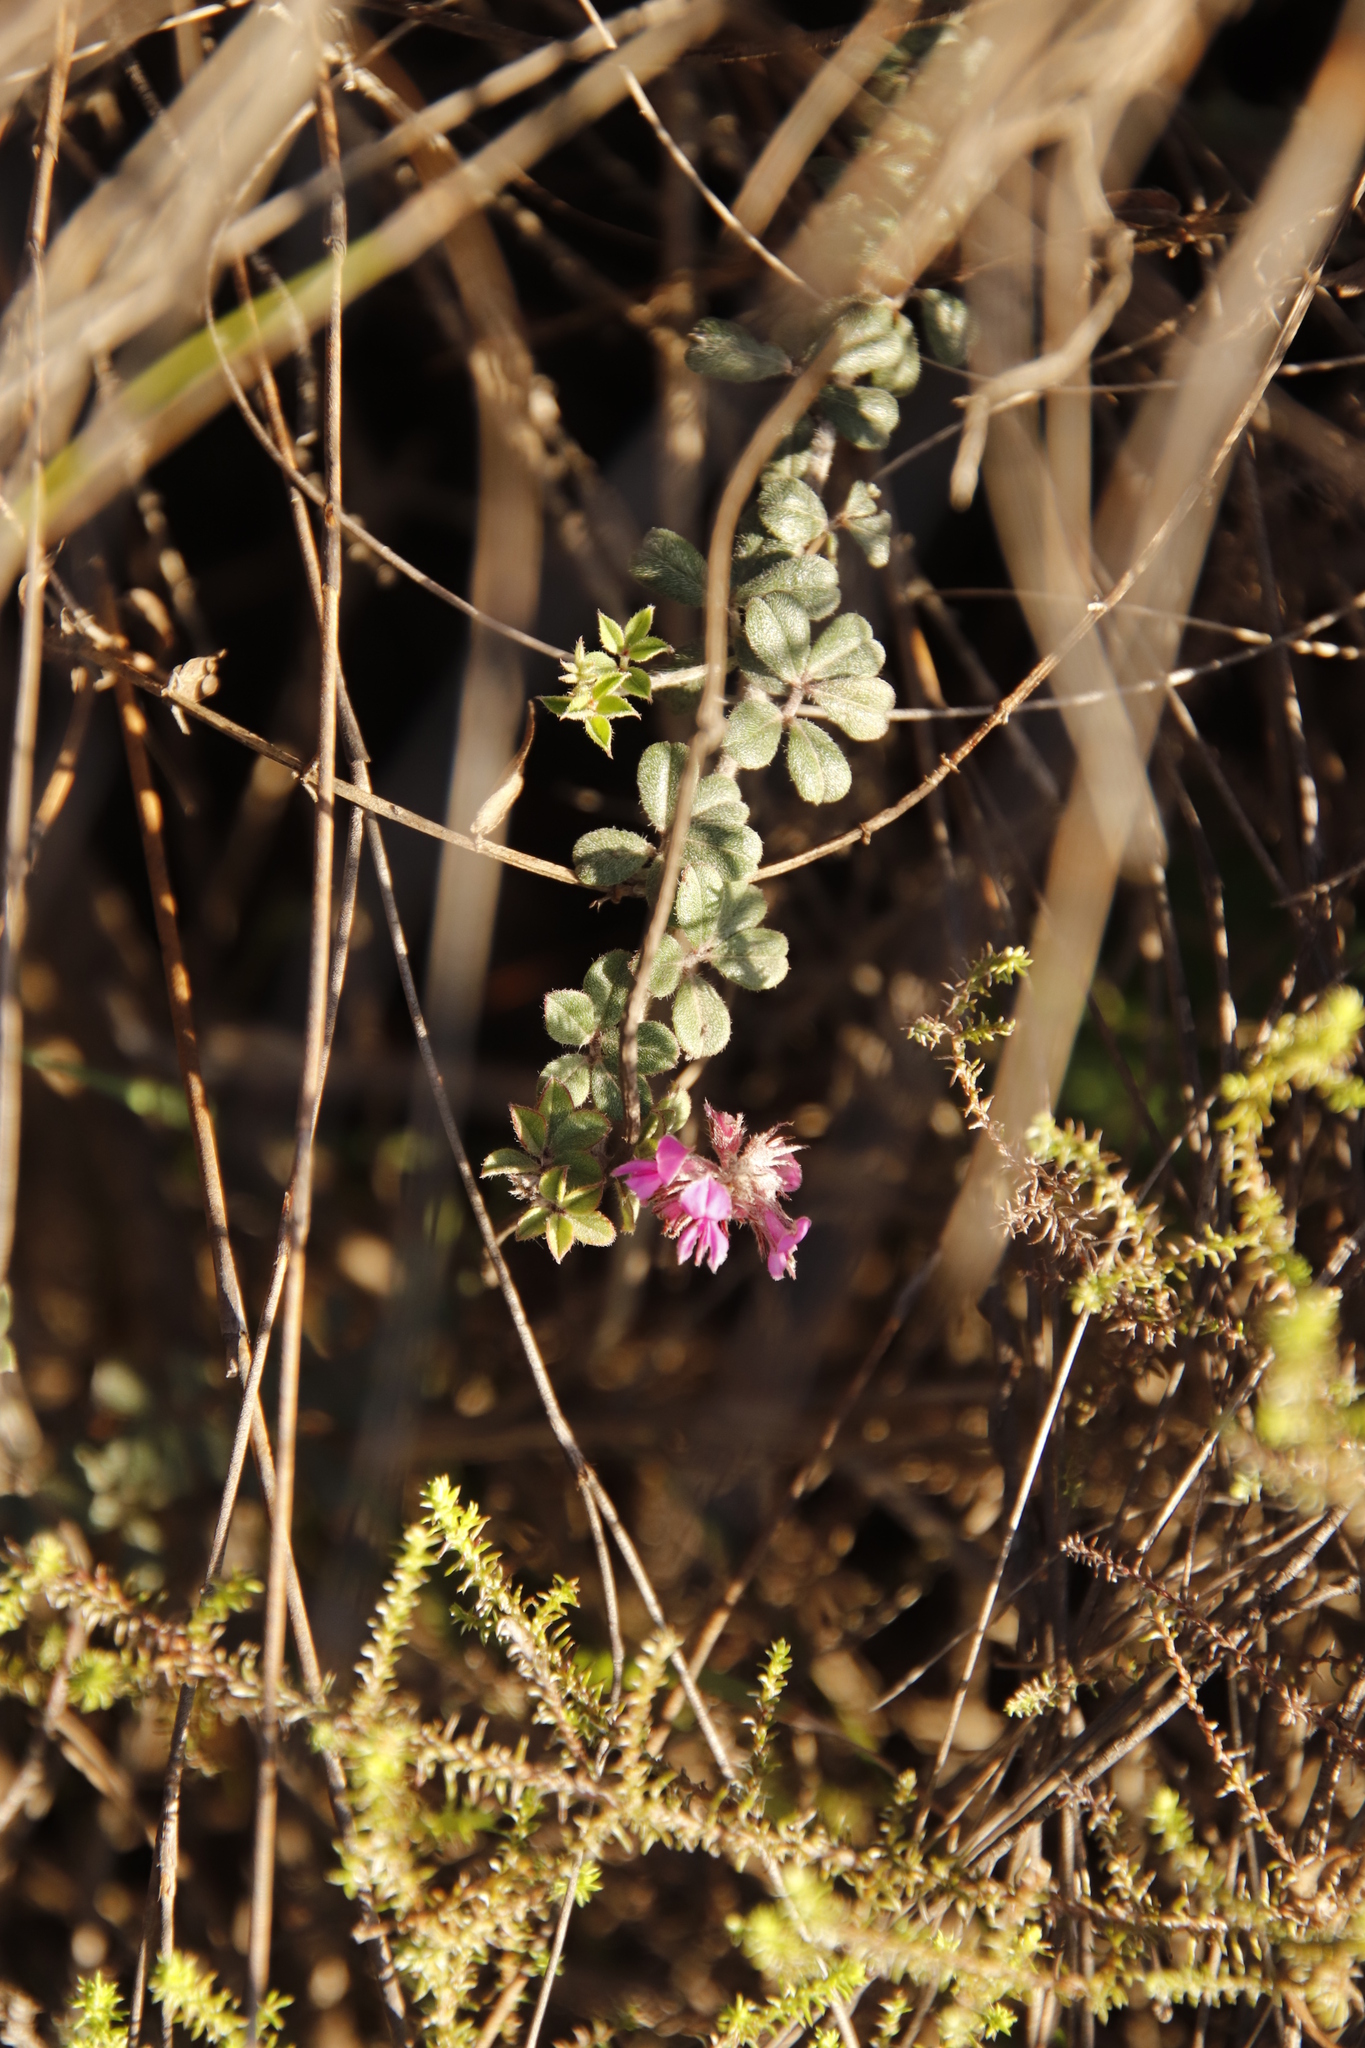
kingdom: Plantae
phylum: Tracheophyta
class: Magnoliopsida
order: Fabales
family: Fabaceae
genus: Indigofera
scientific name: Indigofera mauritanica
